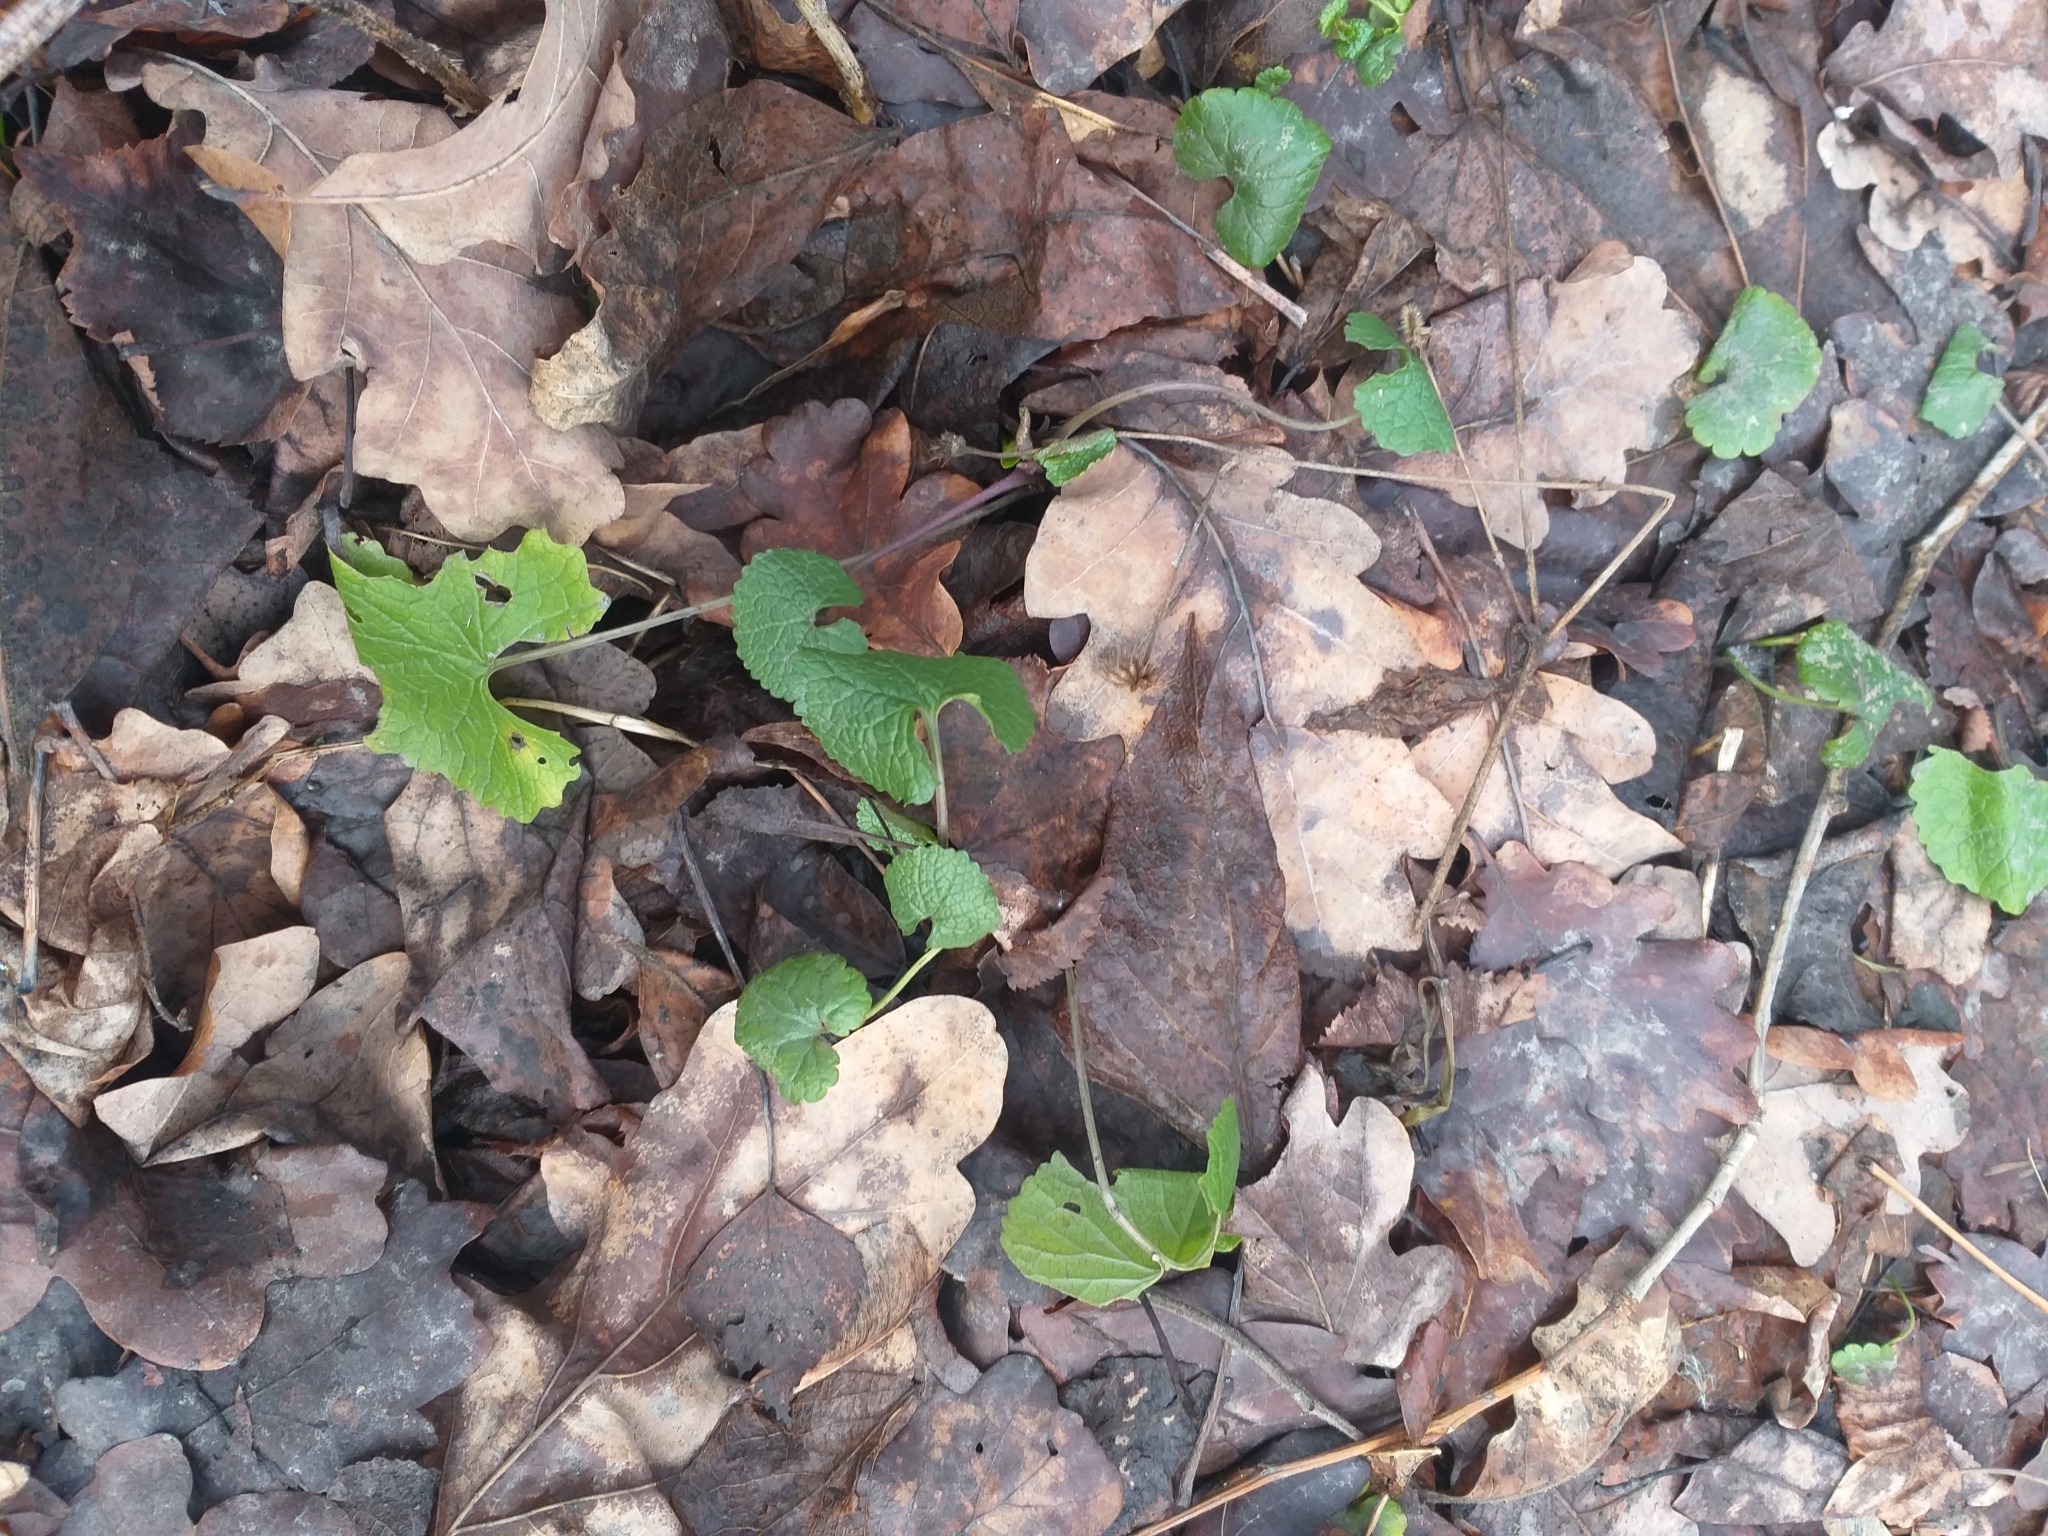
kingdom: Plantae
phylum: Tracheophyta
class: Magnoliopsida
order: Brassicales
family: Brassicaceae
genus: Alliaria
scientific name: Alliaria petiolata
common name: Garlic mustard
